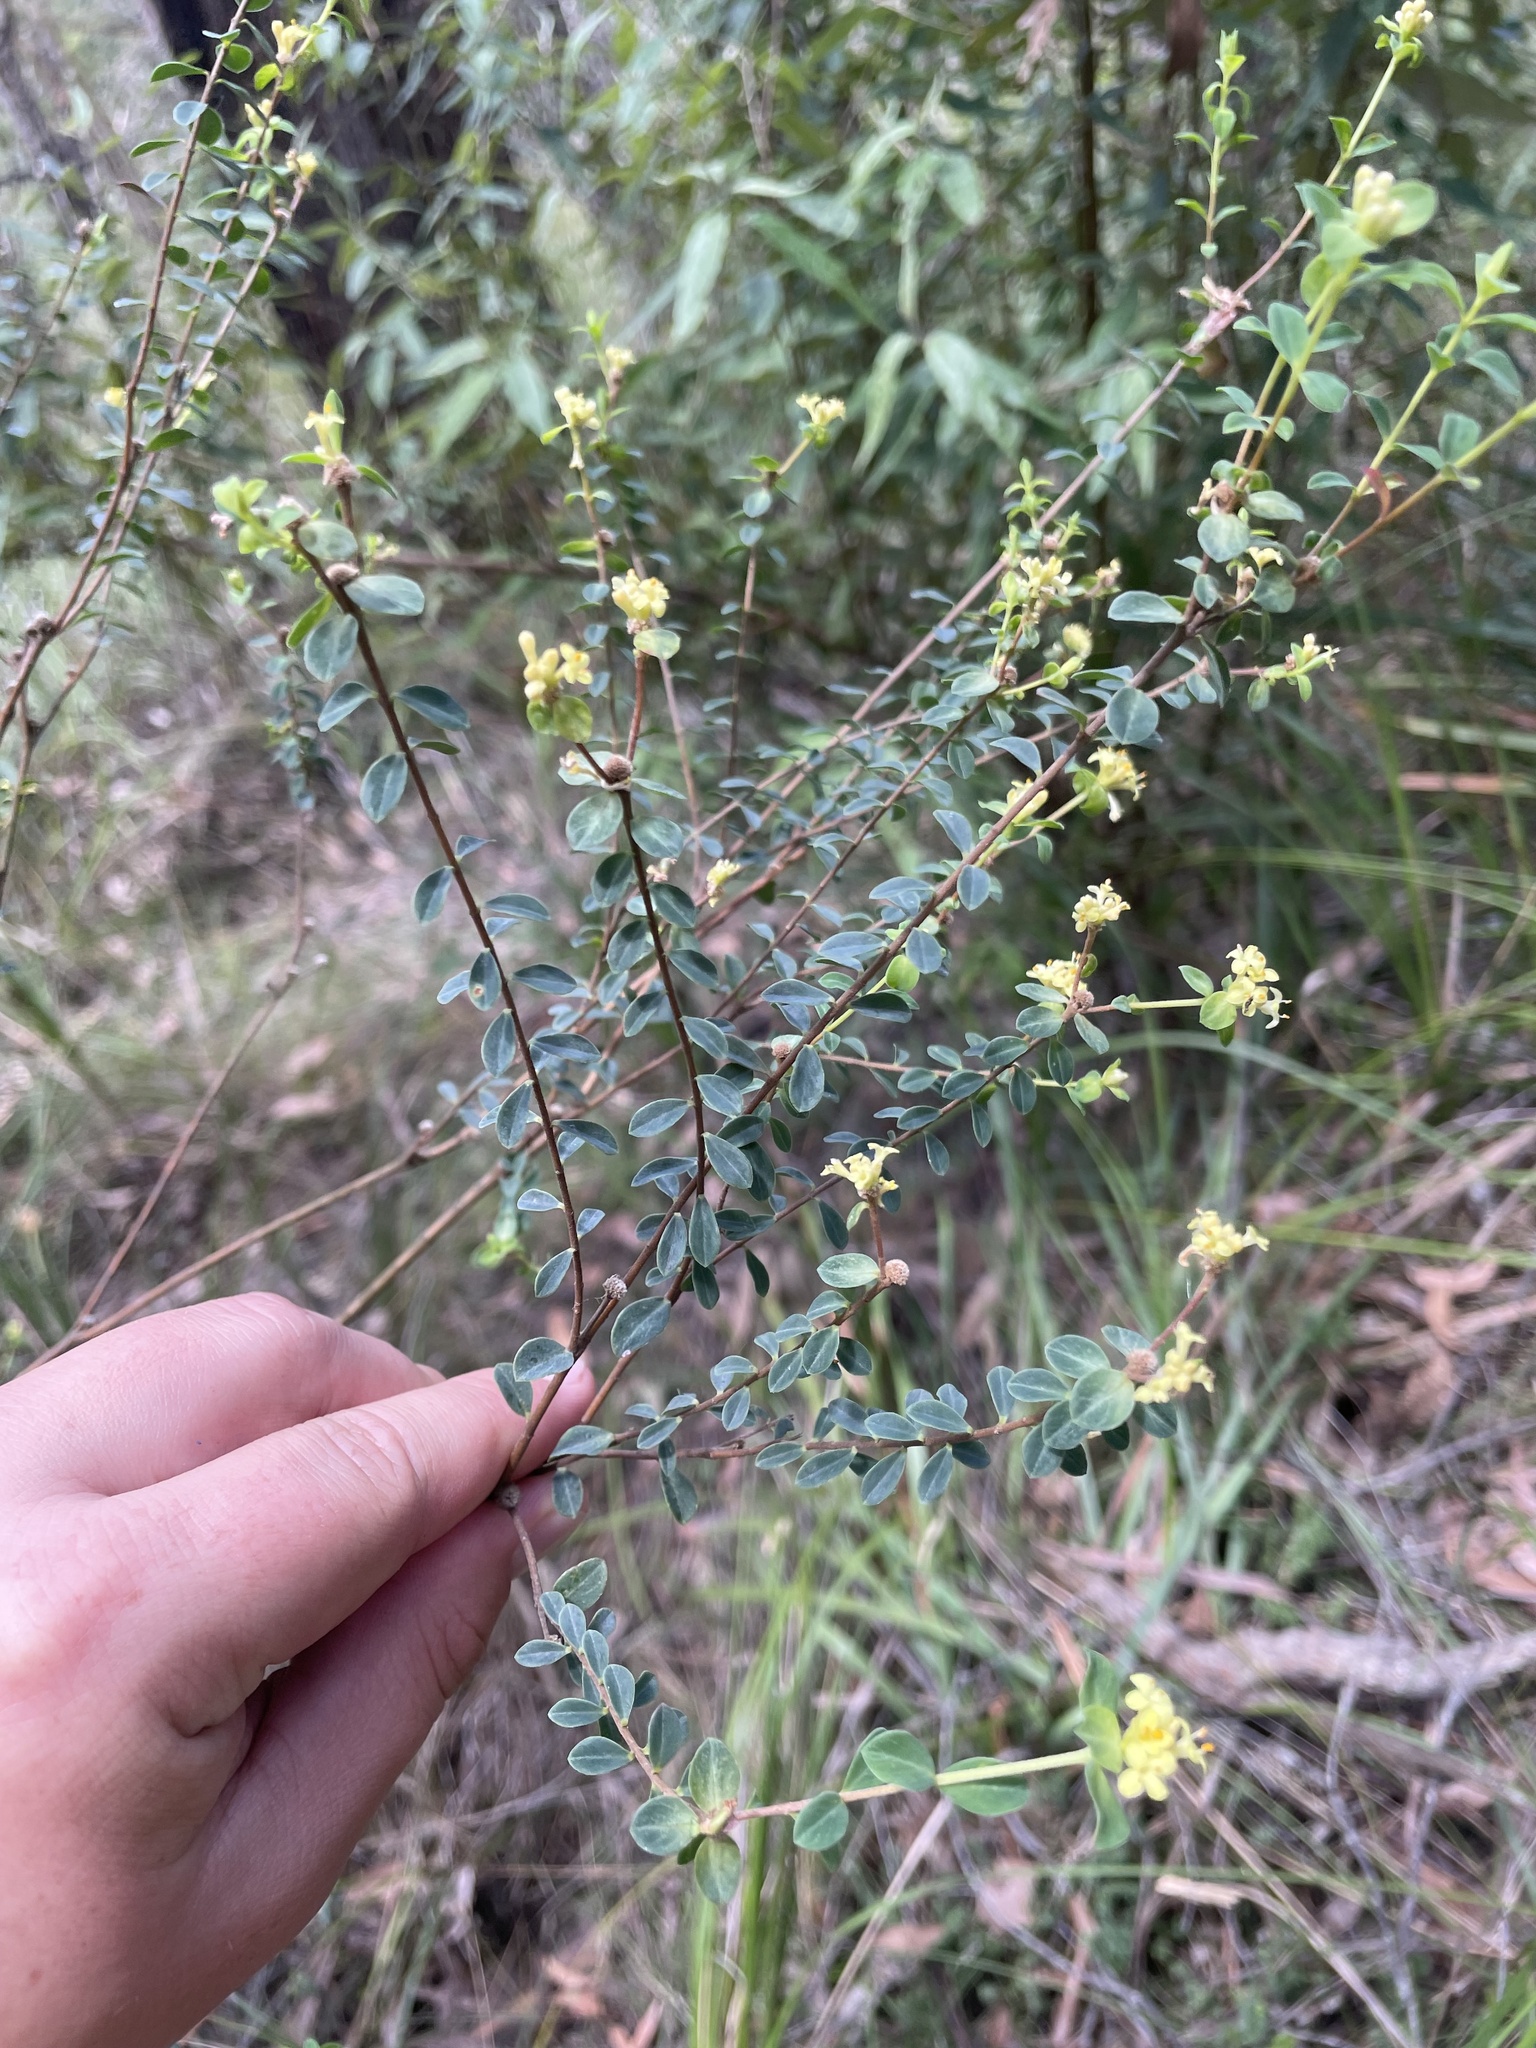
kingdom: Plantae
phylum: Tracheophyta
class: Magnoliopsida
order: Malvales
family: Thymelaeaceae
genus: Pimelea
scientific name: Pimelea flava
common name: Yellow riceflower
